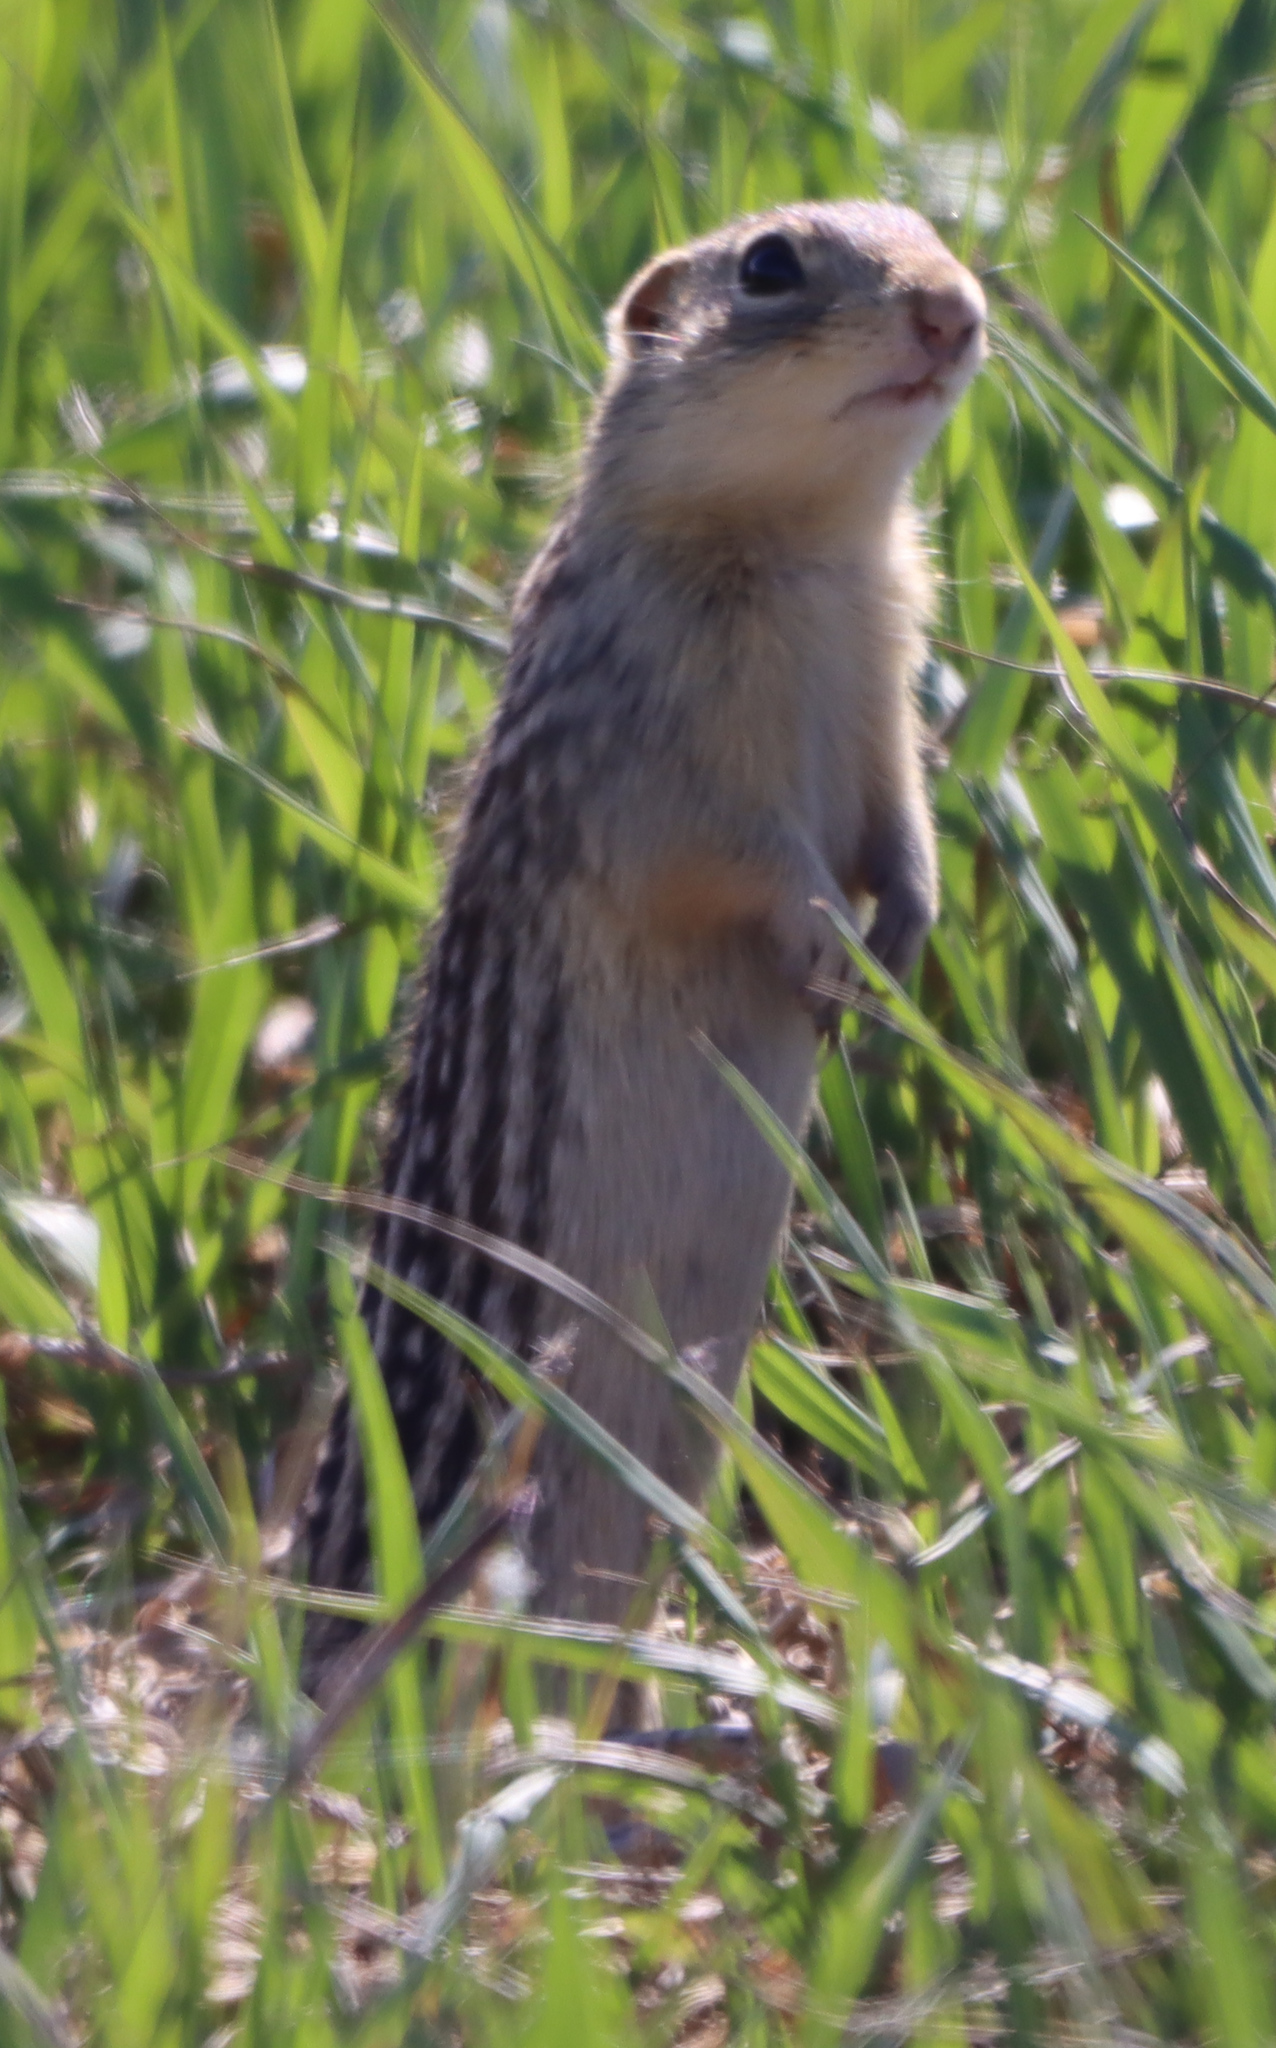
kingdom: Animalia
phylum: Chordata
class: Mammalia
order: Rodentia
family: Sciuridae
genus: Ictidomys
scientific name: Ictidomys tridecemlineatus
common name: Thirteen-lined ground squirrel
